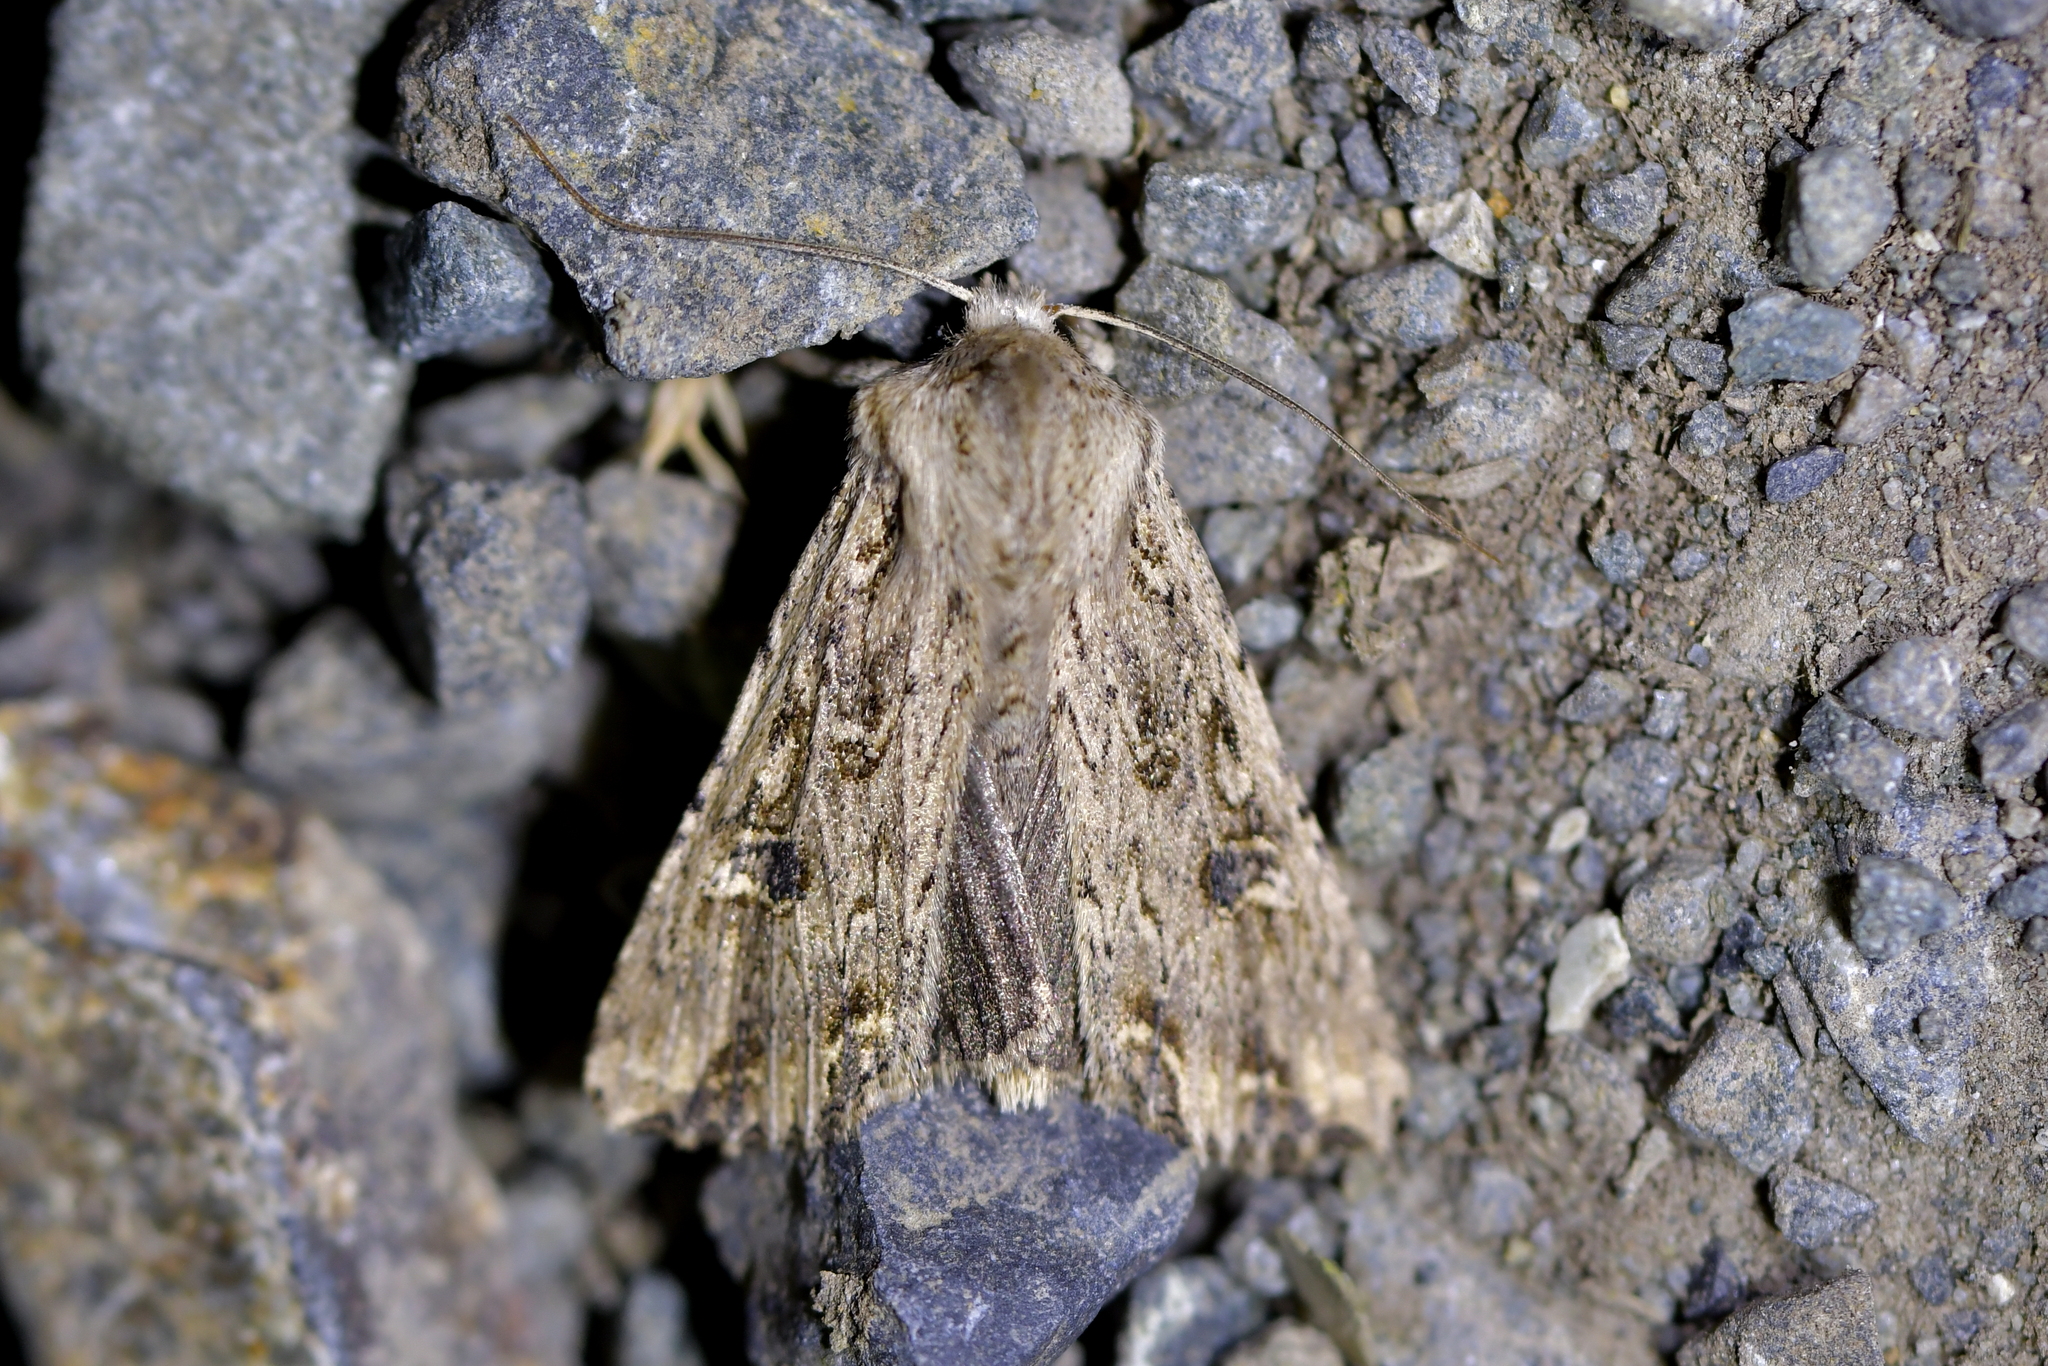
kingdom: Animalia
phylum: Arthropoda
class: Insecta
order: Lepidoptera
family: Noctuidae
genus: Ichneutica
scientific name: Ichneutica lignana
